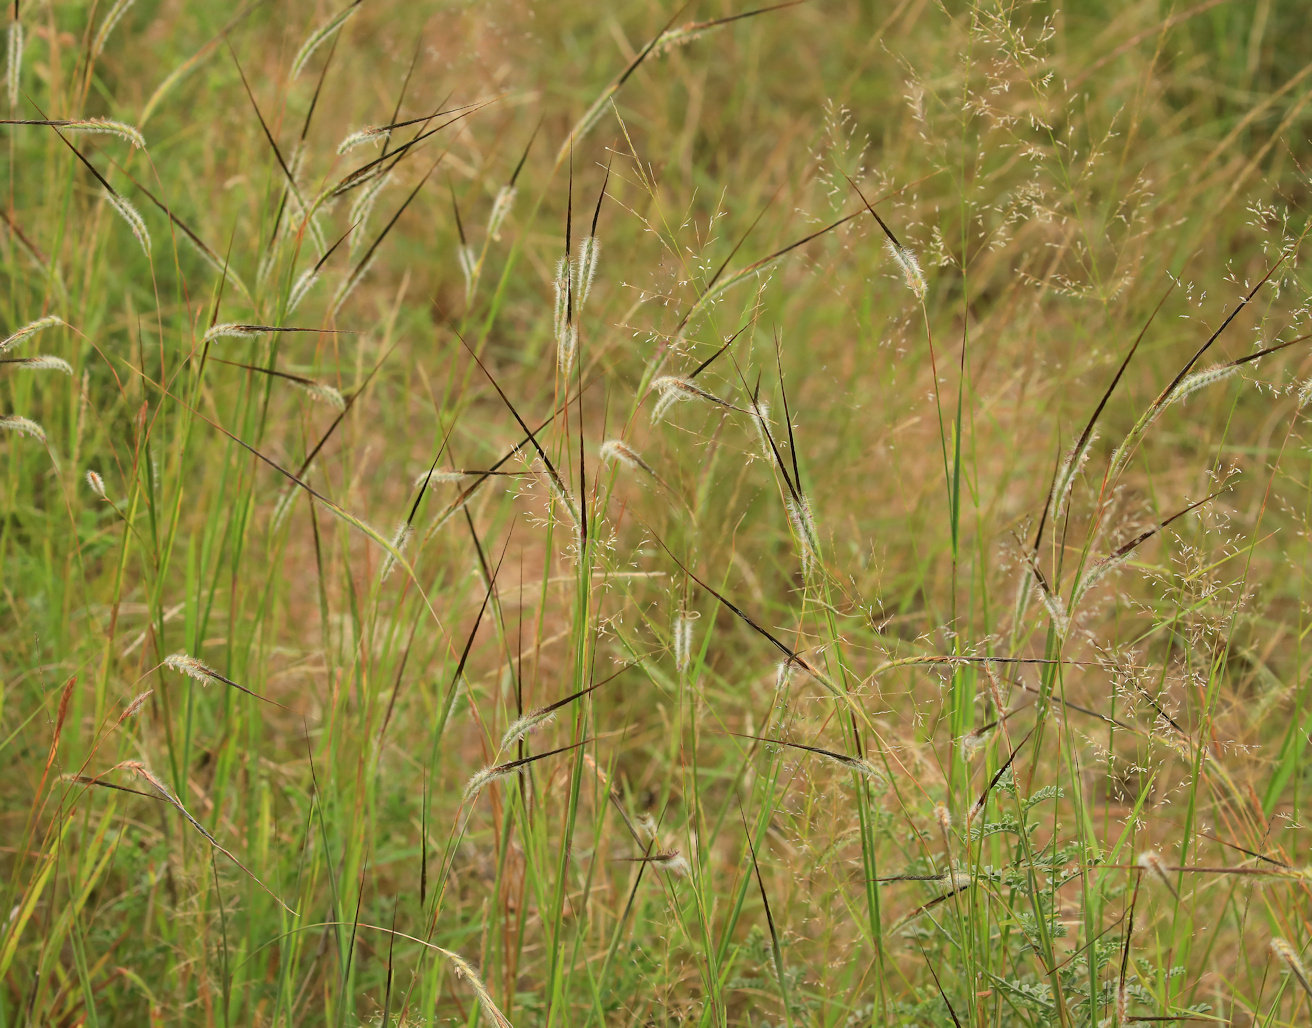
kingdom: Plantae
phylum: Tracheophyta
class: Liliopsida
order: Poales
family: Poaceae
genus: Heteropogon
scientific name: Heteropogon contortus
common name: Tanglehead
